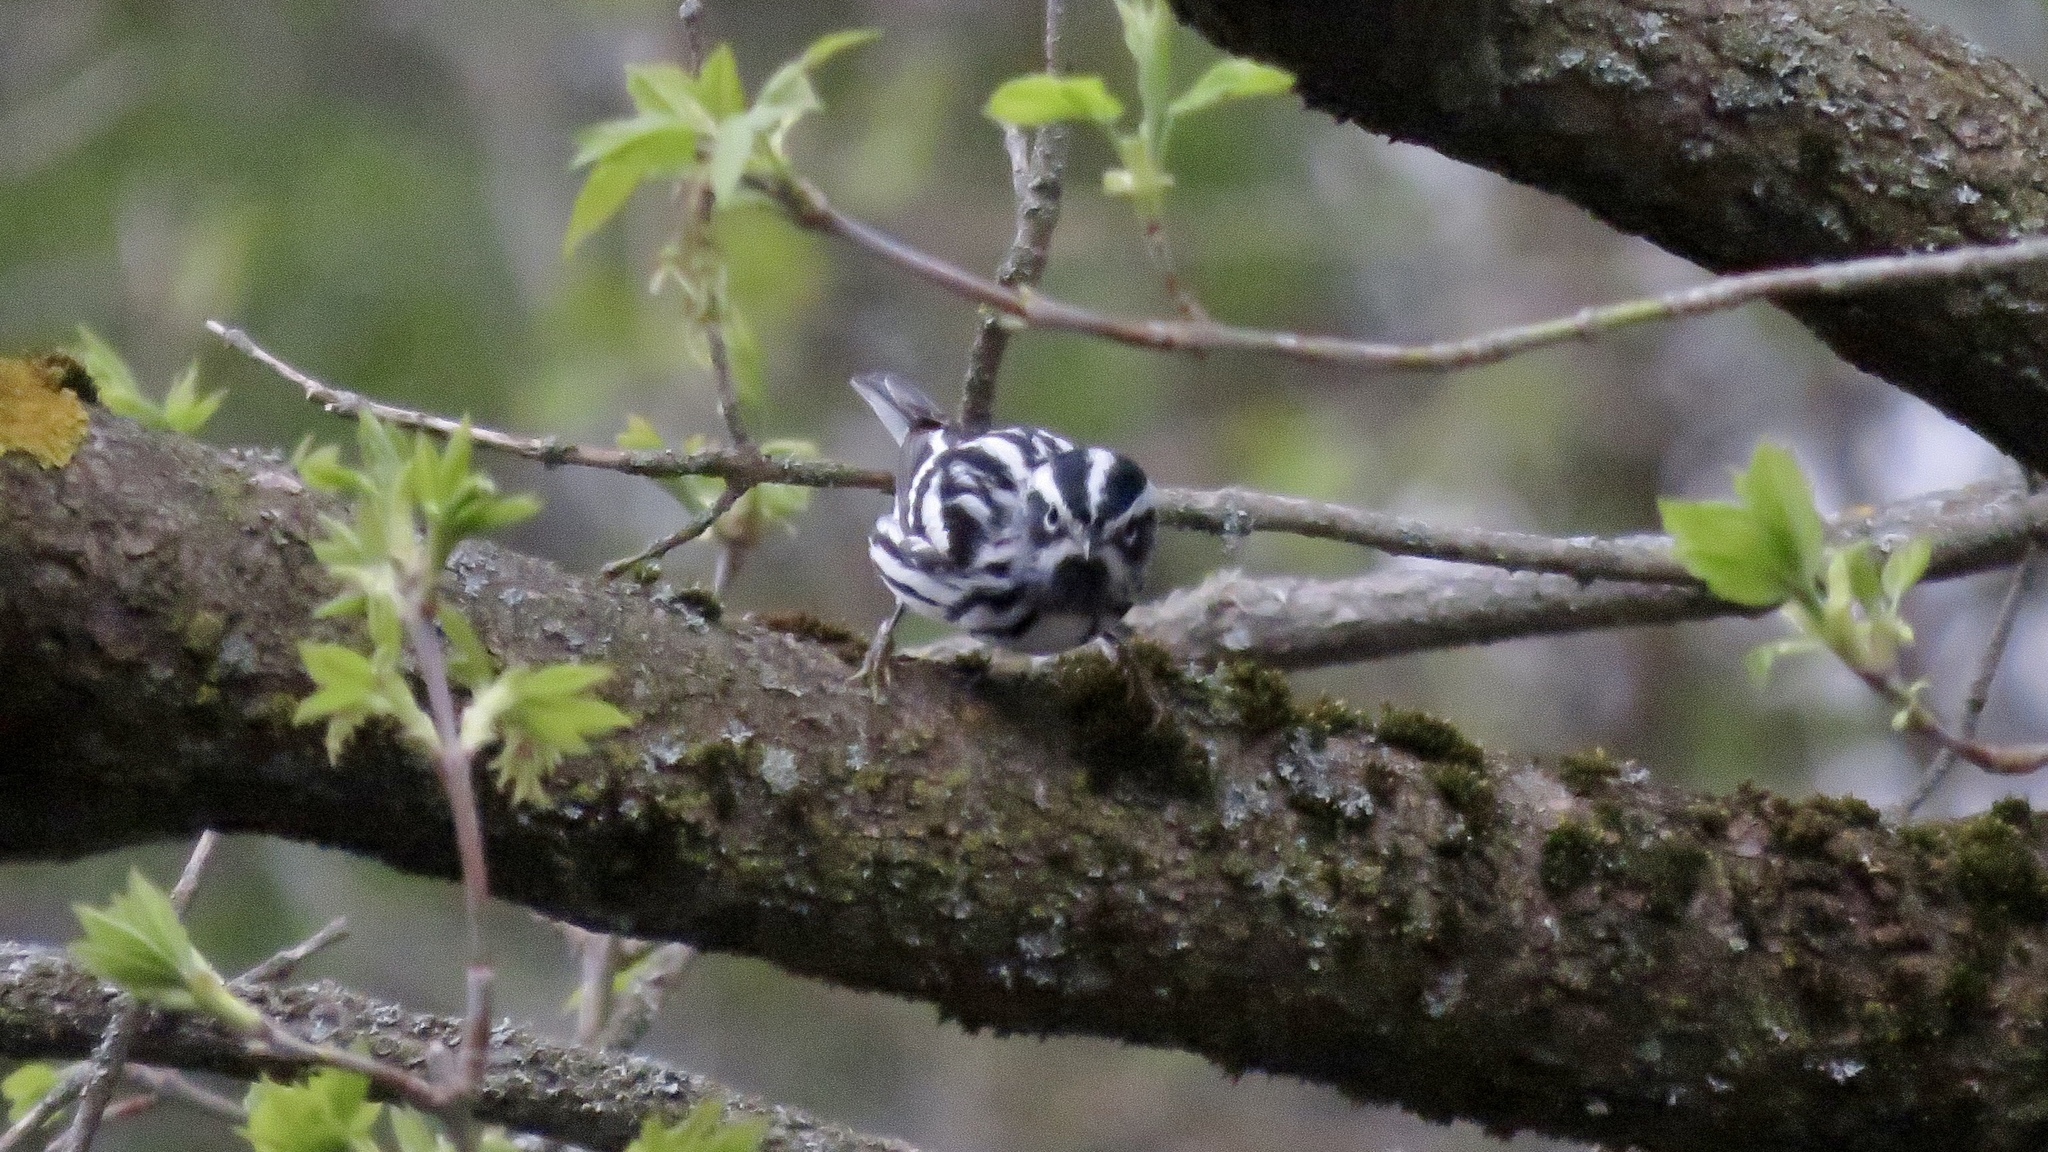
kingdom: Animalia
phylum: Chordata
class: Aves
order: Passeriformes
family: Parulidae
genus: Mniotilta
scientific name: Mniotilta varia
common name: Black-and-white warbler
